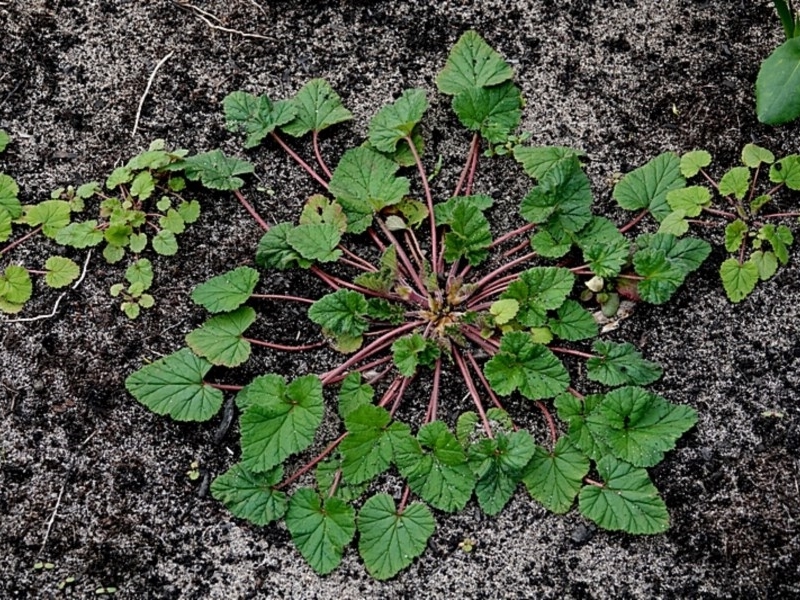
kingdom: Plantae
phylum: Tracheophyta
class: Magnoliopsida
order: Geraniales
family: Geraniaceae
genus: Pelargonium
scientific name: Pelargonium inodorum
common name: Kopata geranium
